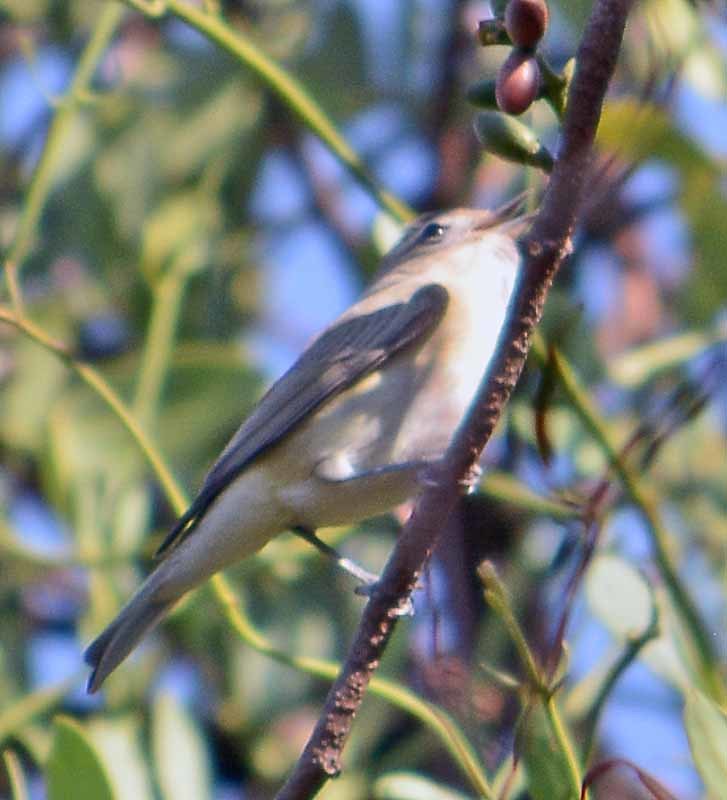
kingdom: Animalia
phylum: Chordata
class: Aves
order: Passeriformes
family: Vireonidae
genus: Vireo
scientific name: Vireo gilvus
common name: Warbling vireo
